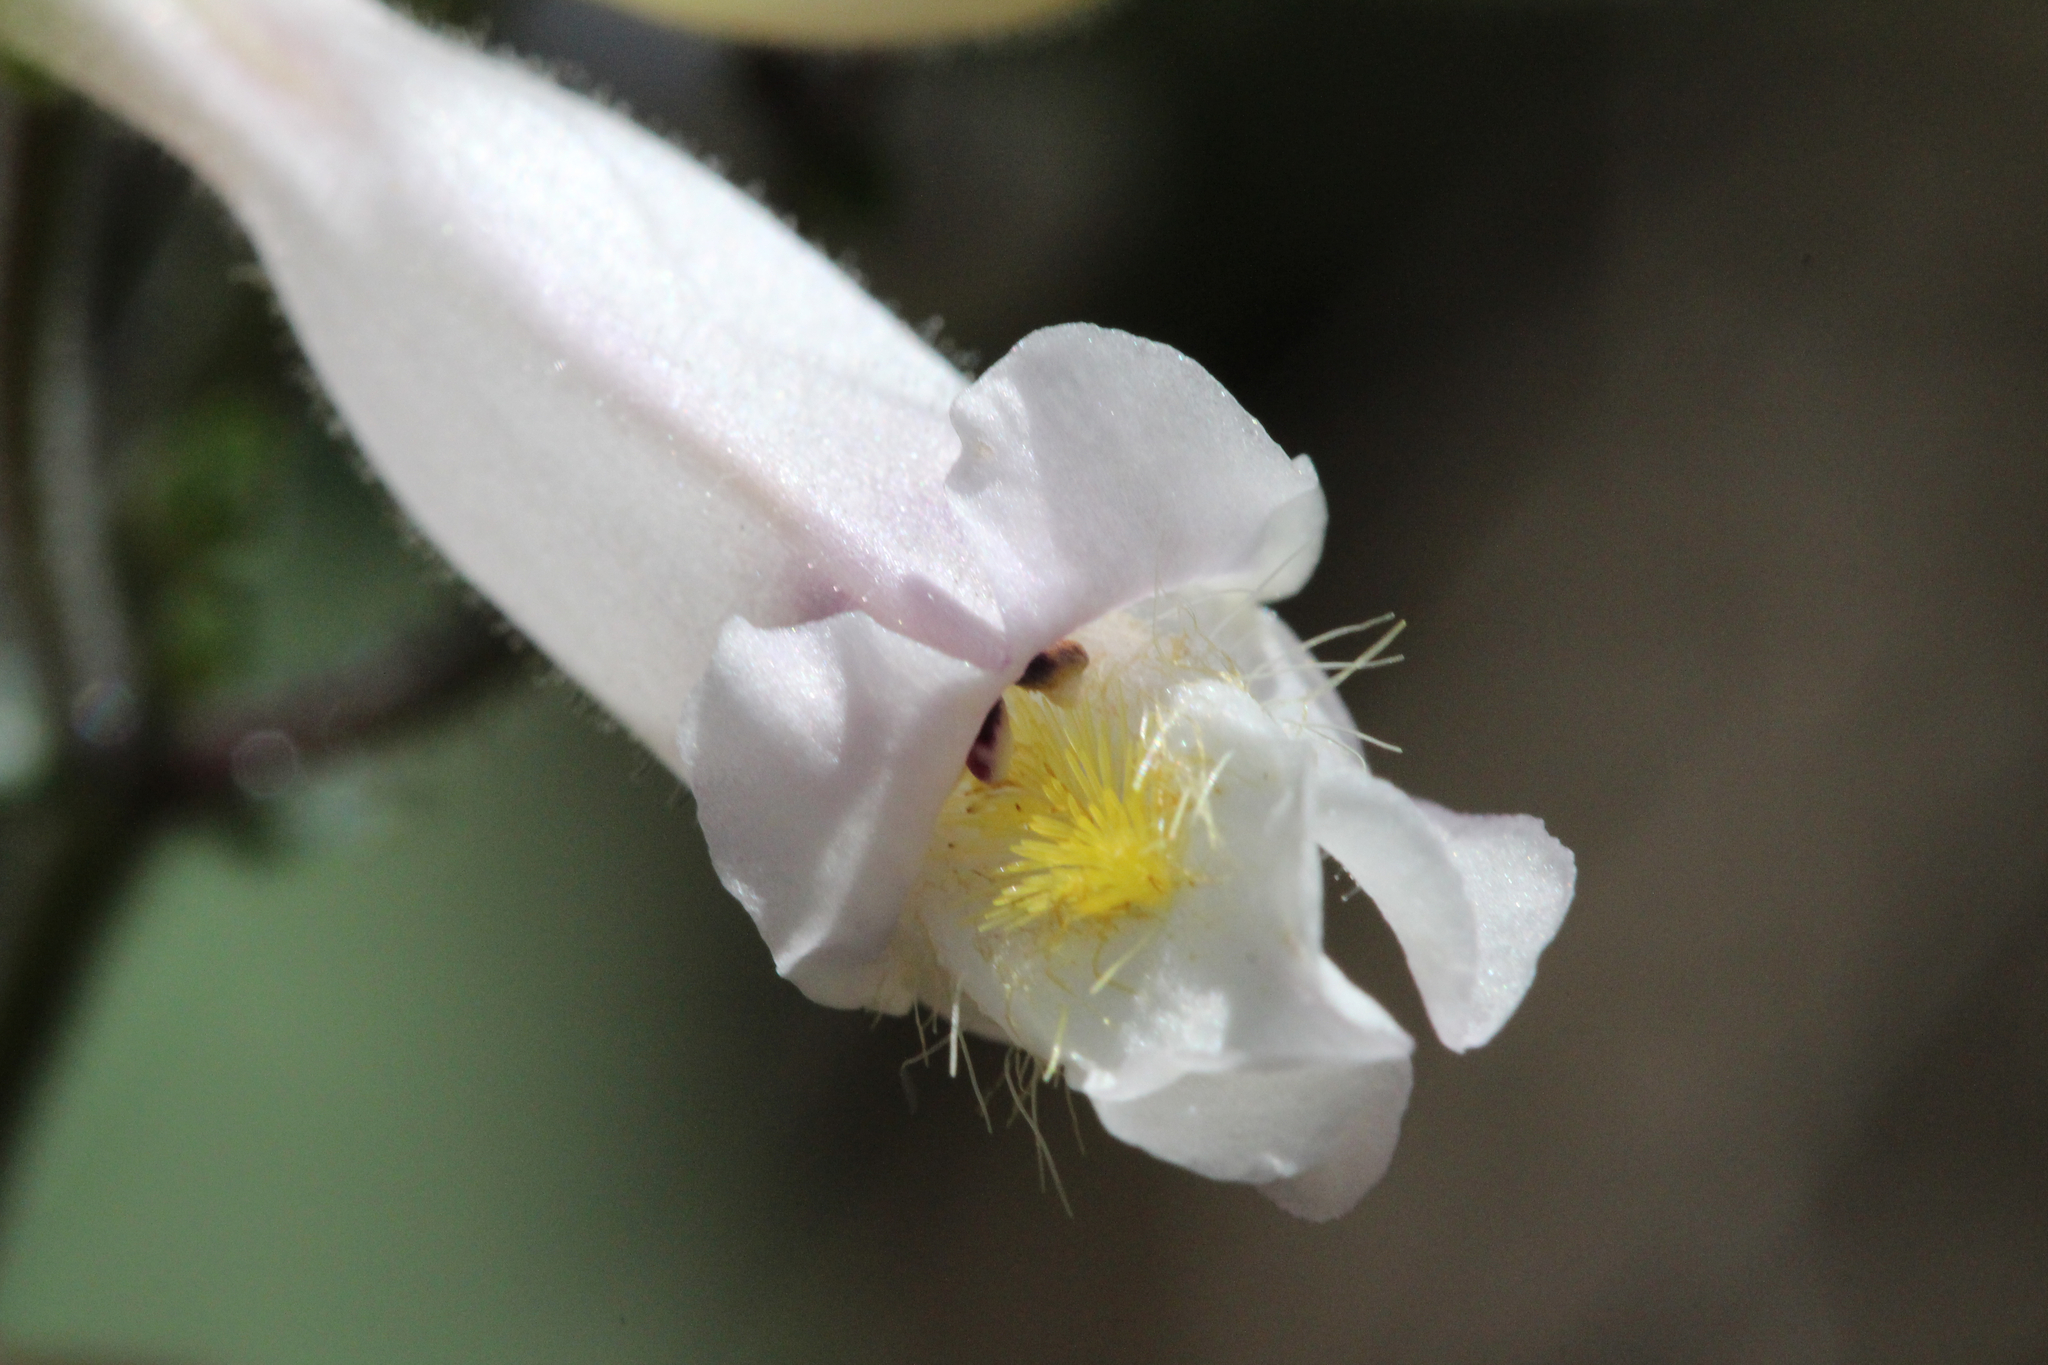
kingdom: Plantae
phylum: Tracheophyta
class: Magnoliopsida
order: Lamiales
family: Plantaginaceae
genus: Penstemon
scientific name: Penstemon tenuiflorus
